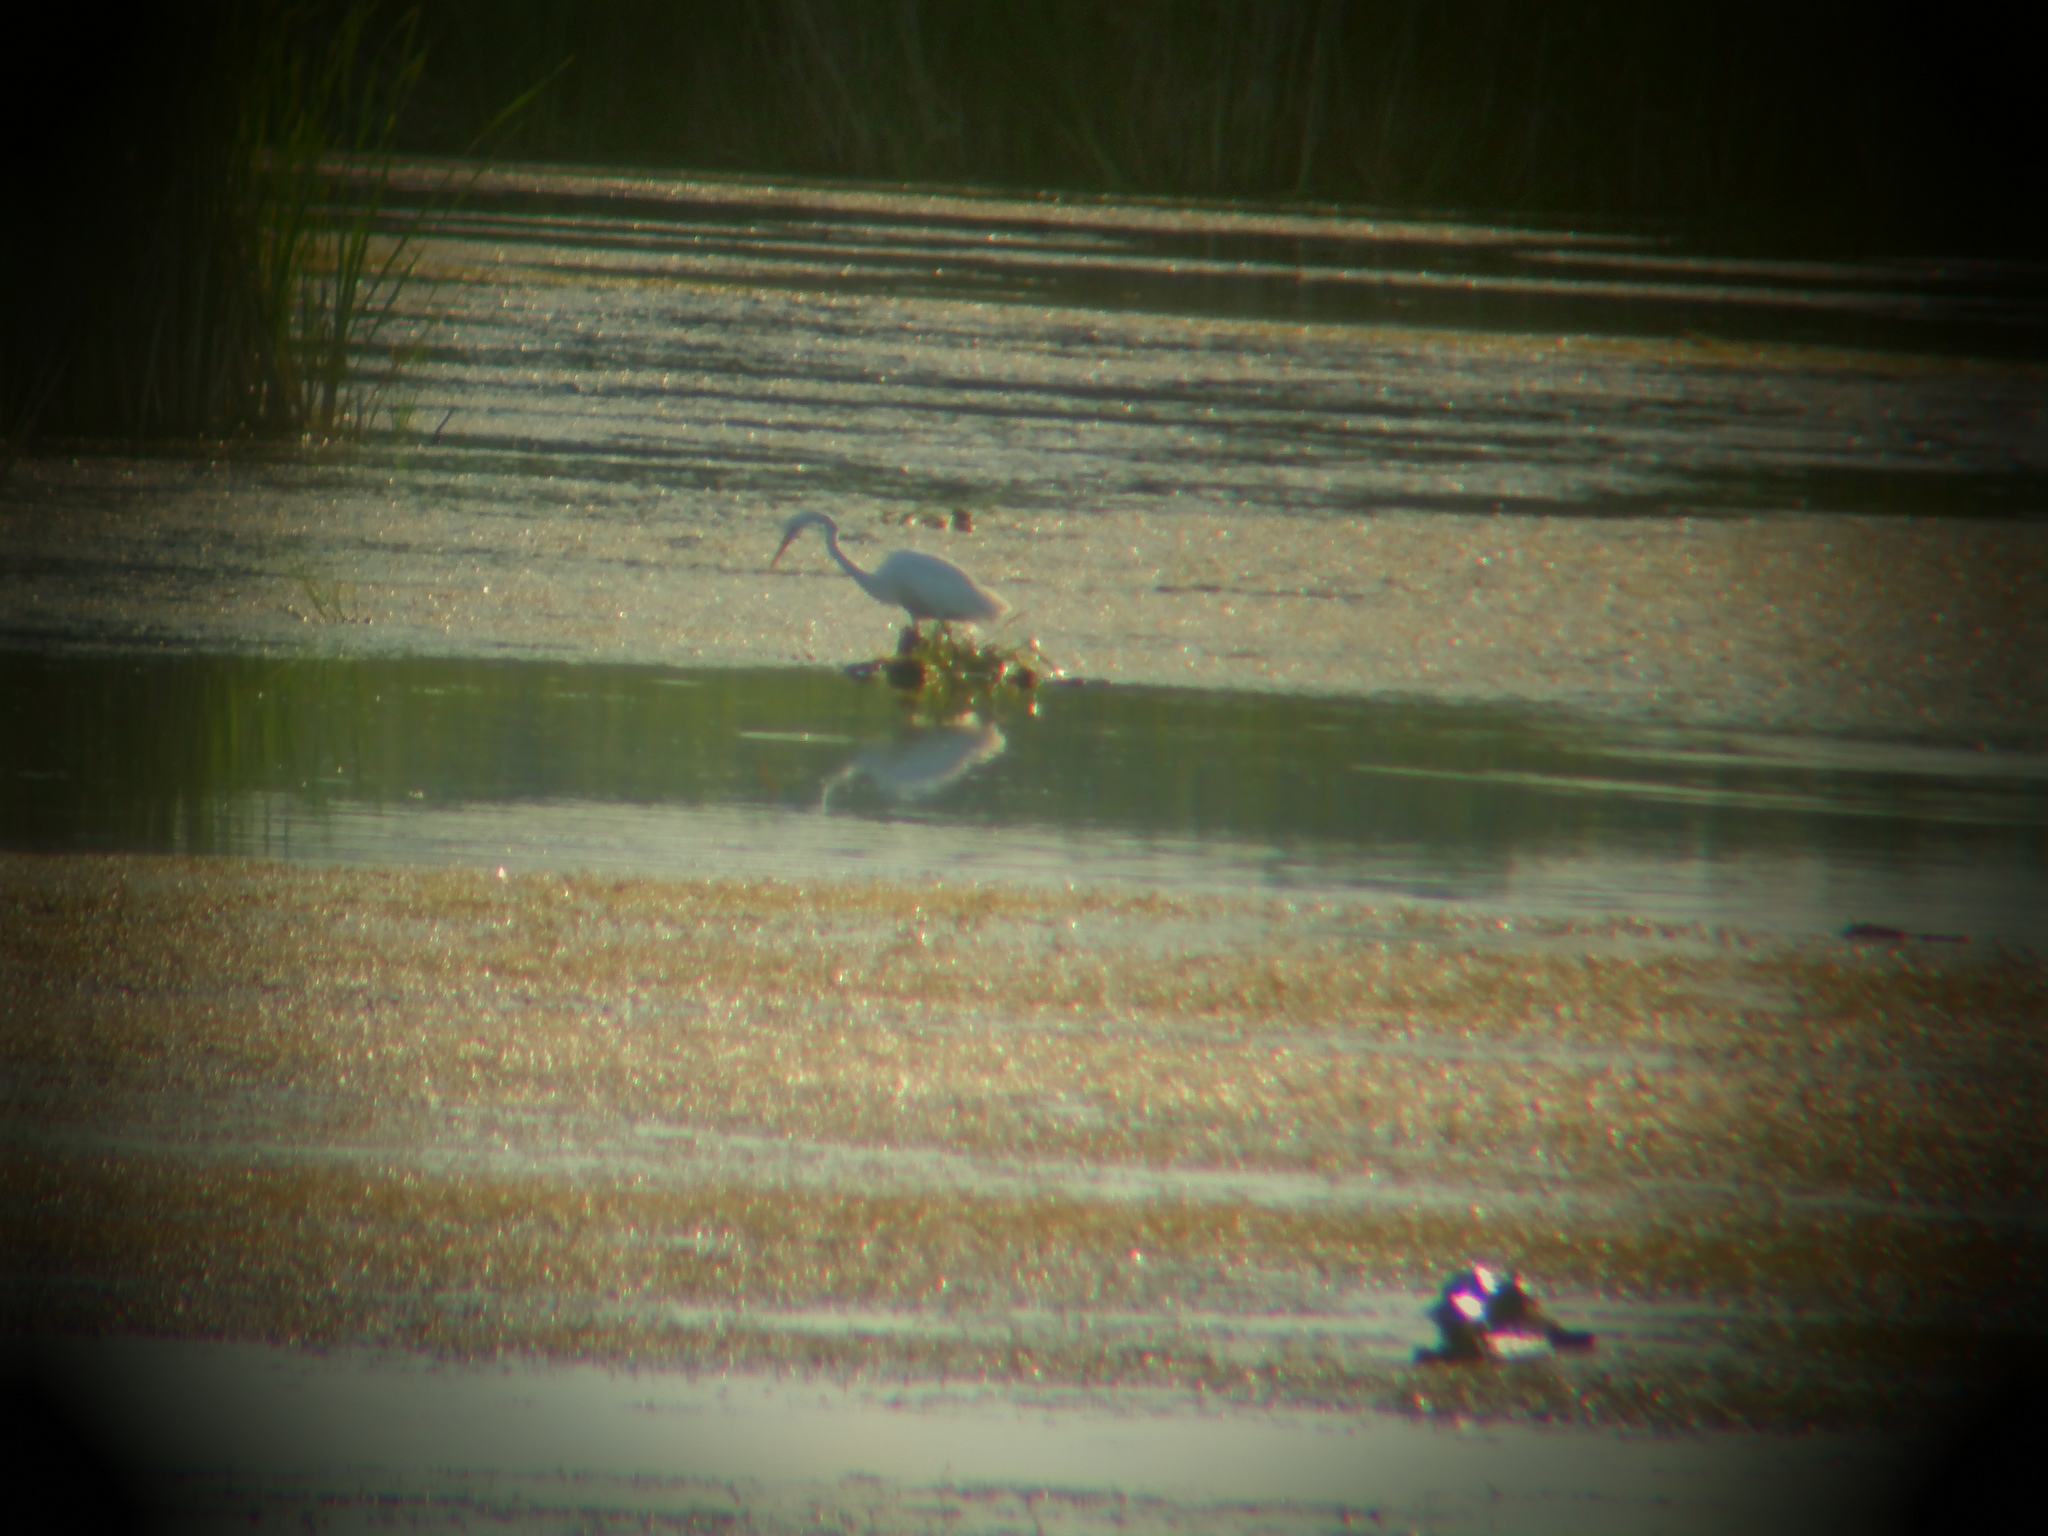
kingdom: Animalia
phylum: Chordata
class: Aves
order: Pelecaniformes
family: Ardeidae
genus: Ardea
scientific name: Ardea alba
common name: Great egret
